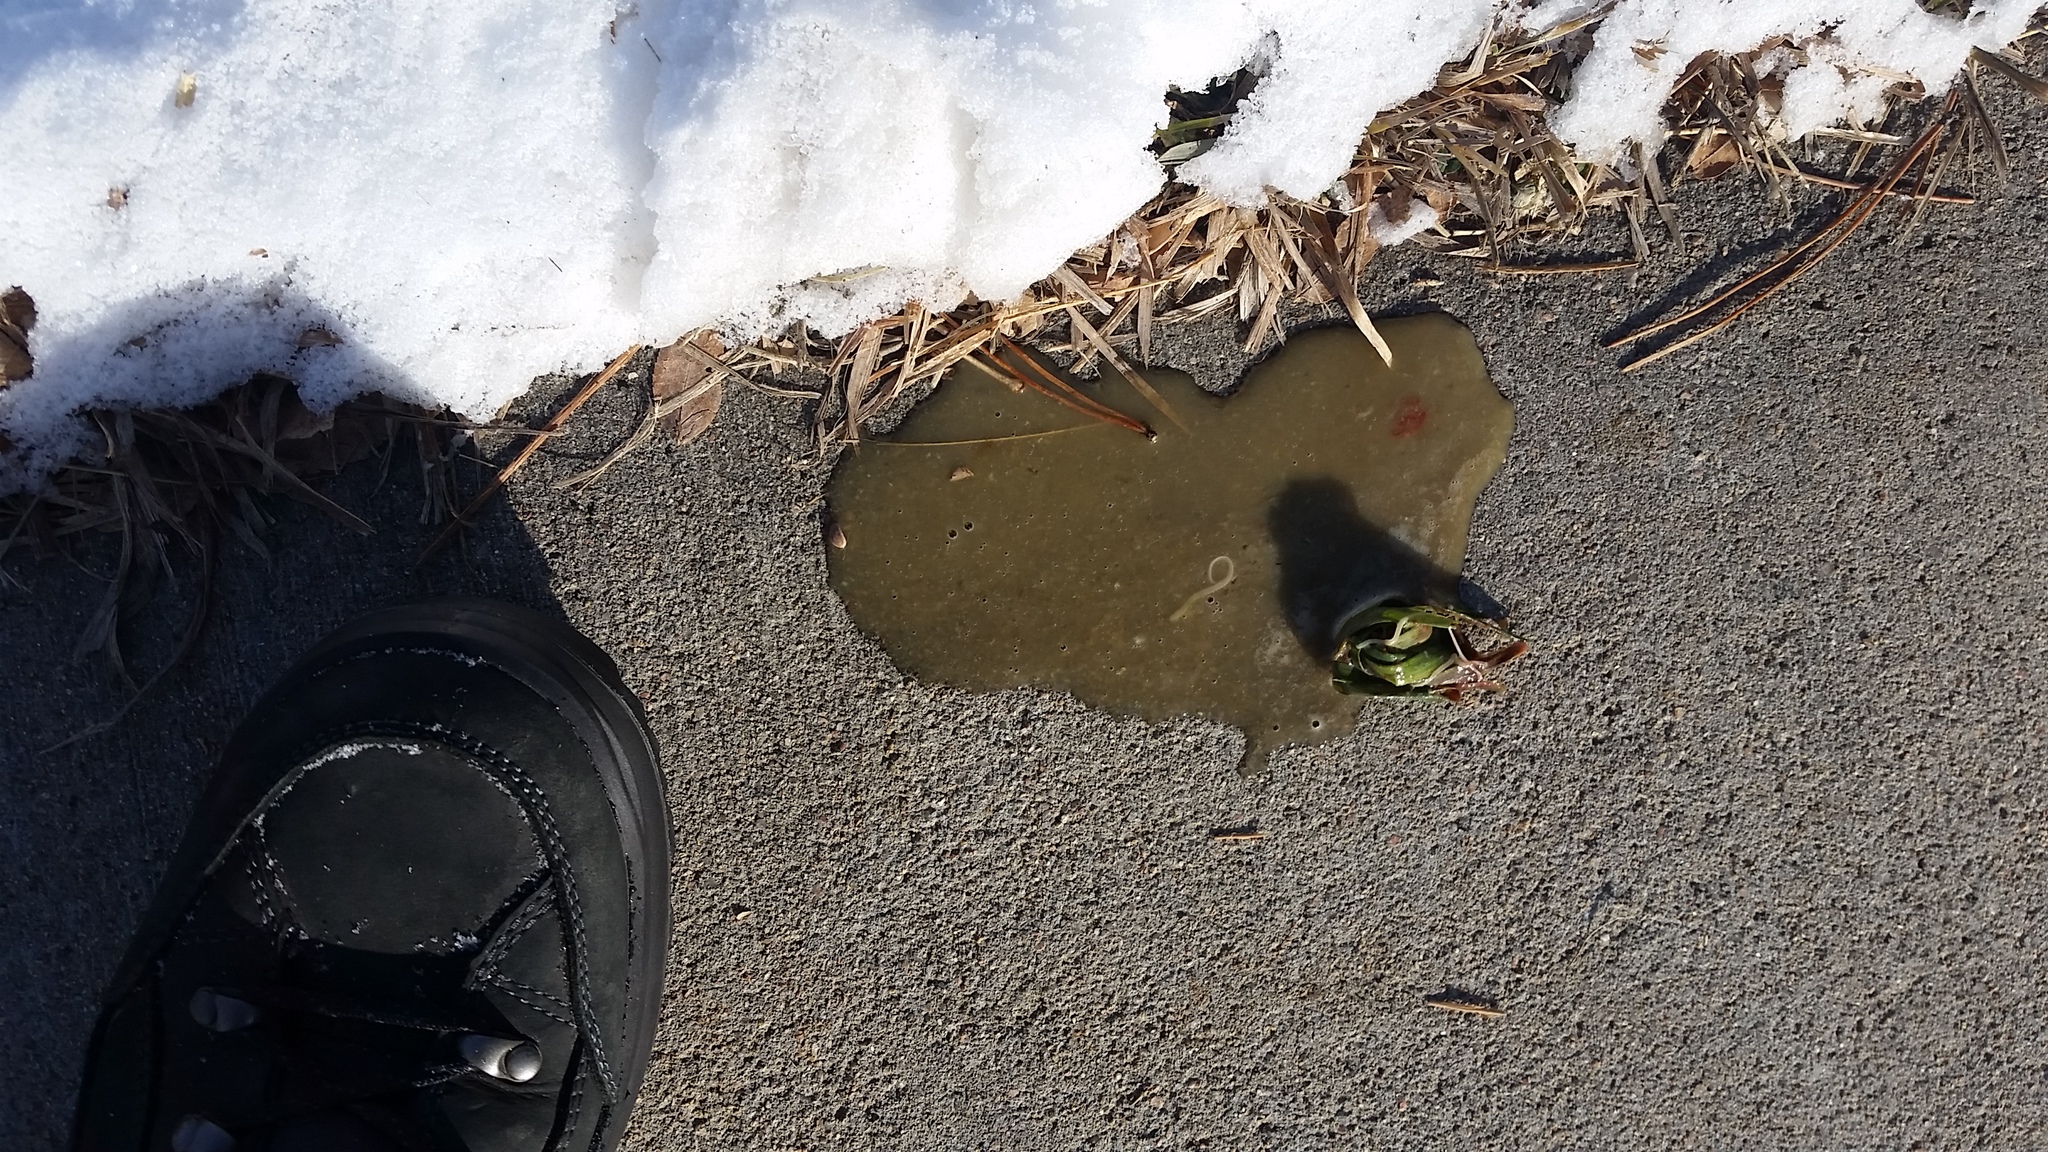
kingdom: Animalia
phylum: Chordata
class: Mammalia
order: Carnivora
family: Canidae
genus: Canis
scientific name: Canis latrans
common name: Coyote
